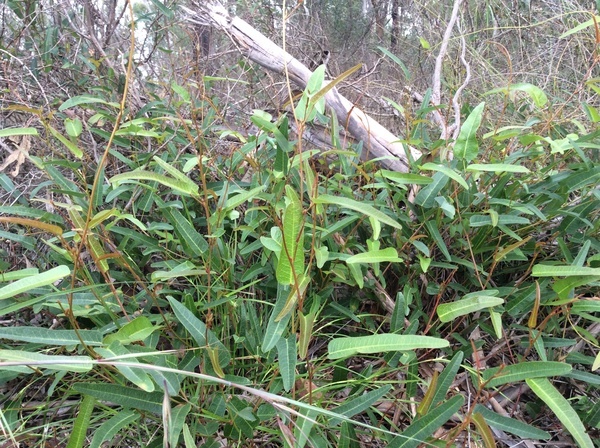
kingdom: Plantae
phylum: Tracheophyta
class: Magnoliopsida
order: Fabales
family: Fabaceae
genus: Hardenbergia
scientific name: Hardenbergia violacea
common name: Coral-pea
